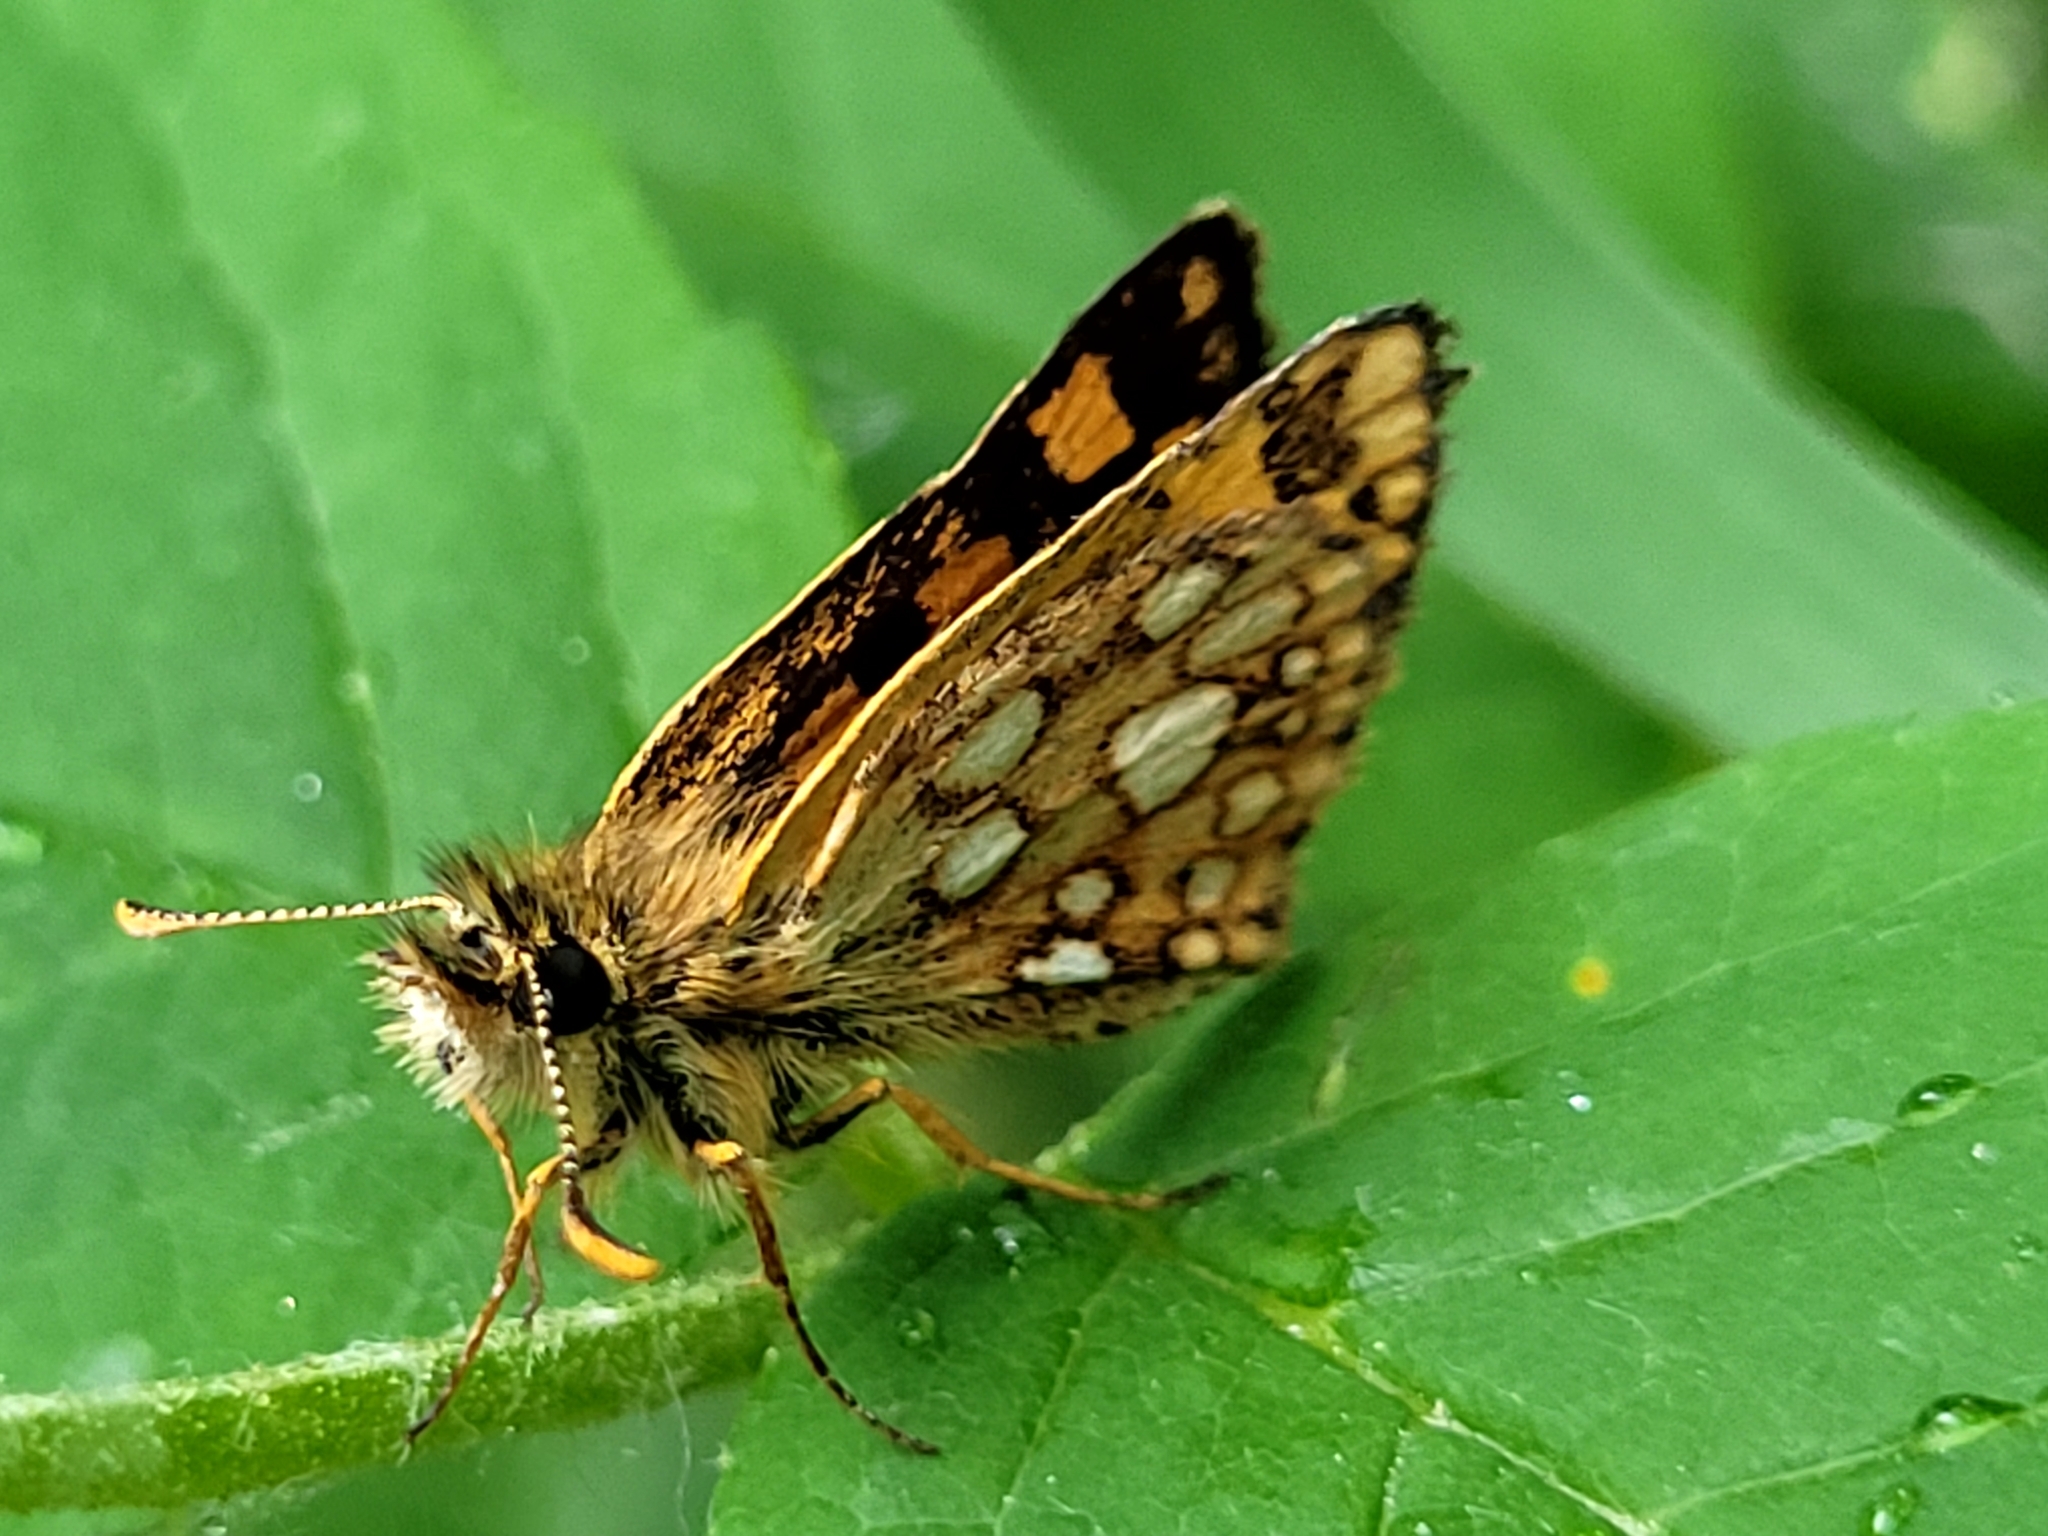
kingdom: Animalia
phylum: Arthropoda
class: Insecta
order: Lepidoptera
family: Hesperiidae
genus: Carterocephalus
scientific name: Carterocephalus mandan
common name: Arctic skipperling
